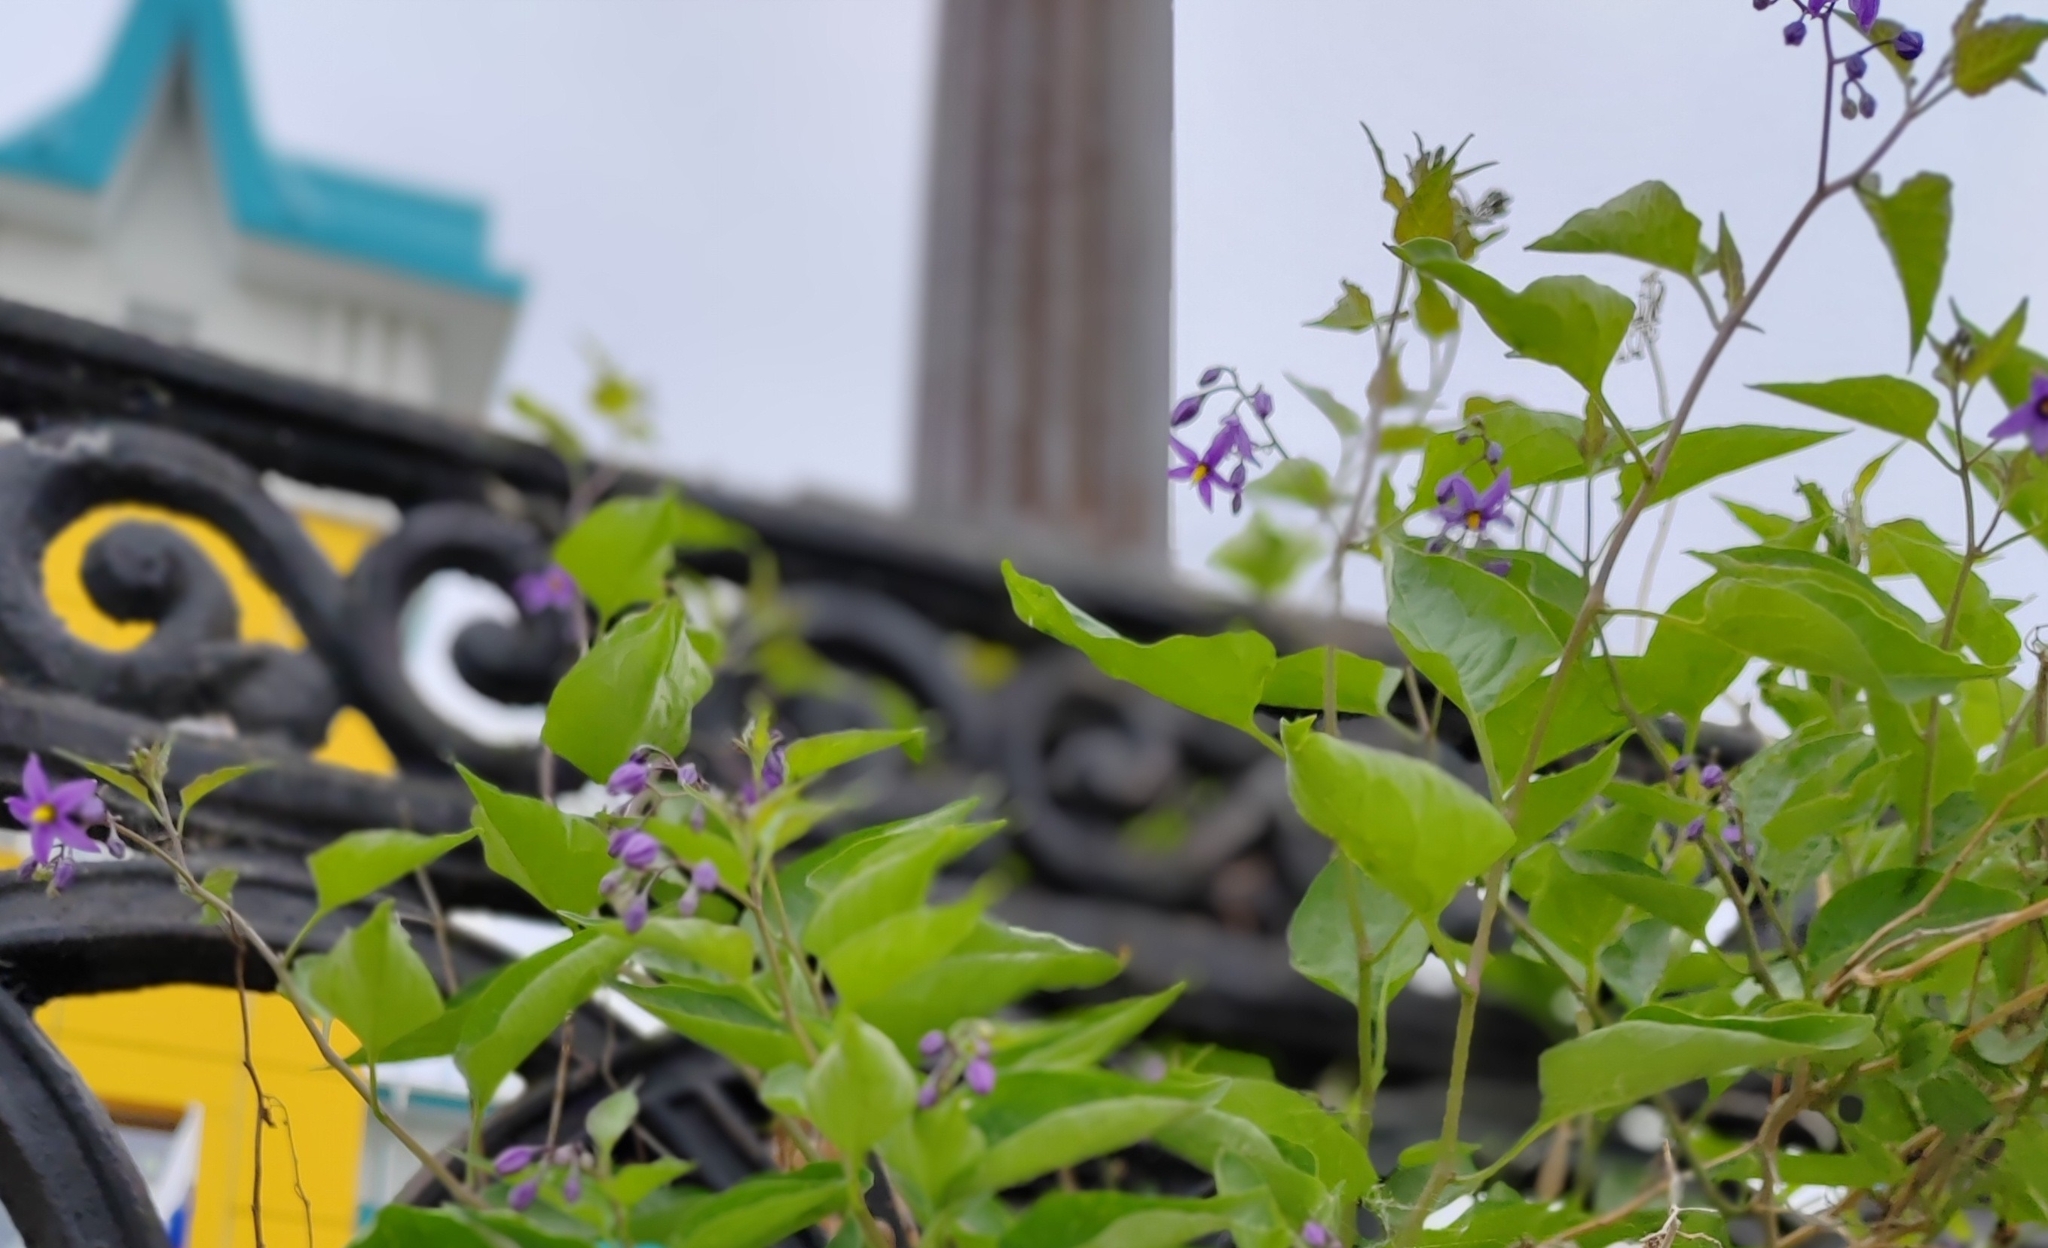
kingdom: Plantae
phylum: Tracheophyta
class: Magnoliopsida
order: Solanales
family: Solanaceae
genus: Solanum
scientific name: Solanum dulcamara
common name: Climbing nightshade
